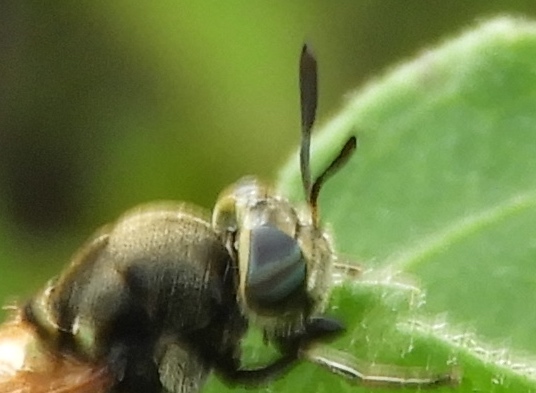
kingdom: Animalia
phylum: Arthropoda
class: Insecta
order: Diptera
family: Stratiomyidae
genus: Hoplitimyia
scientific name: Hoplitimyia
